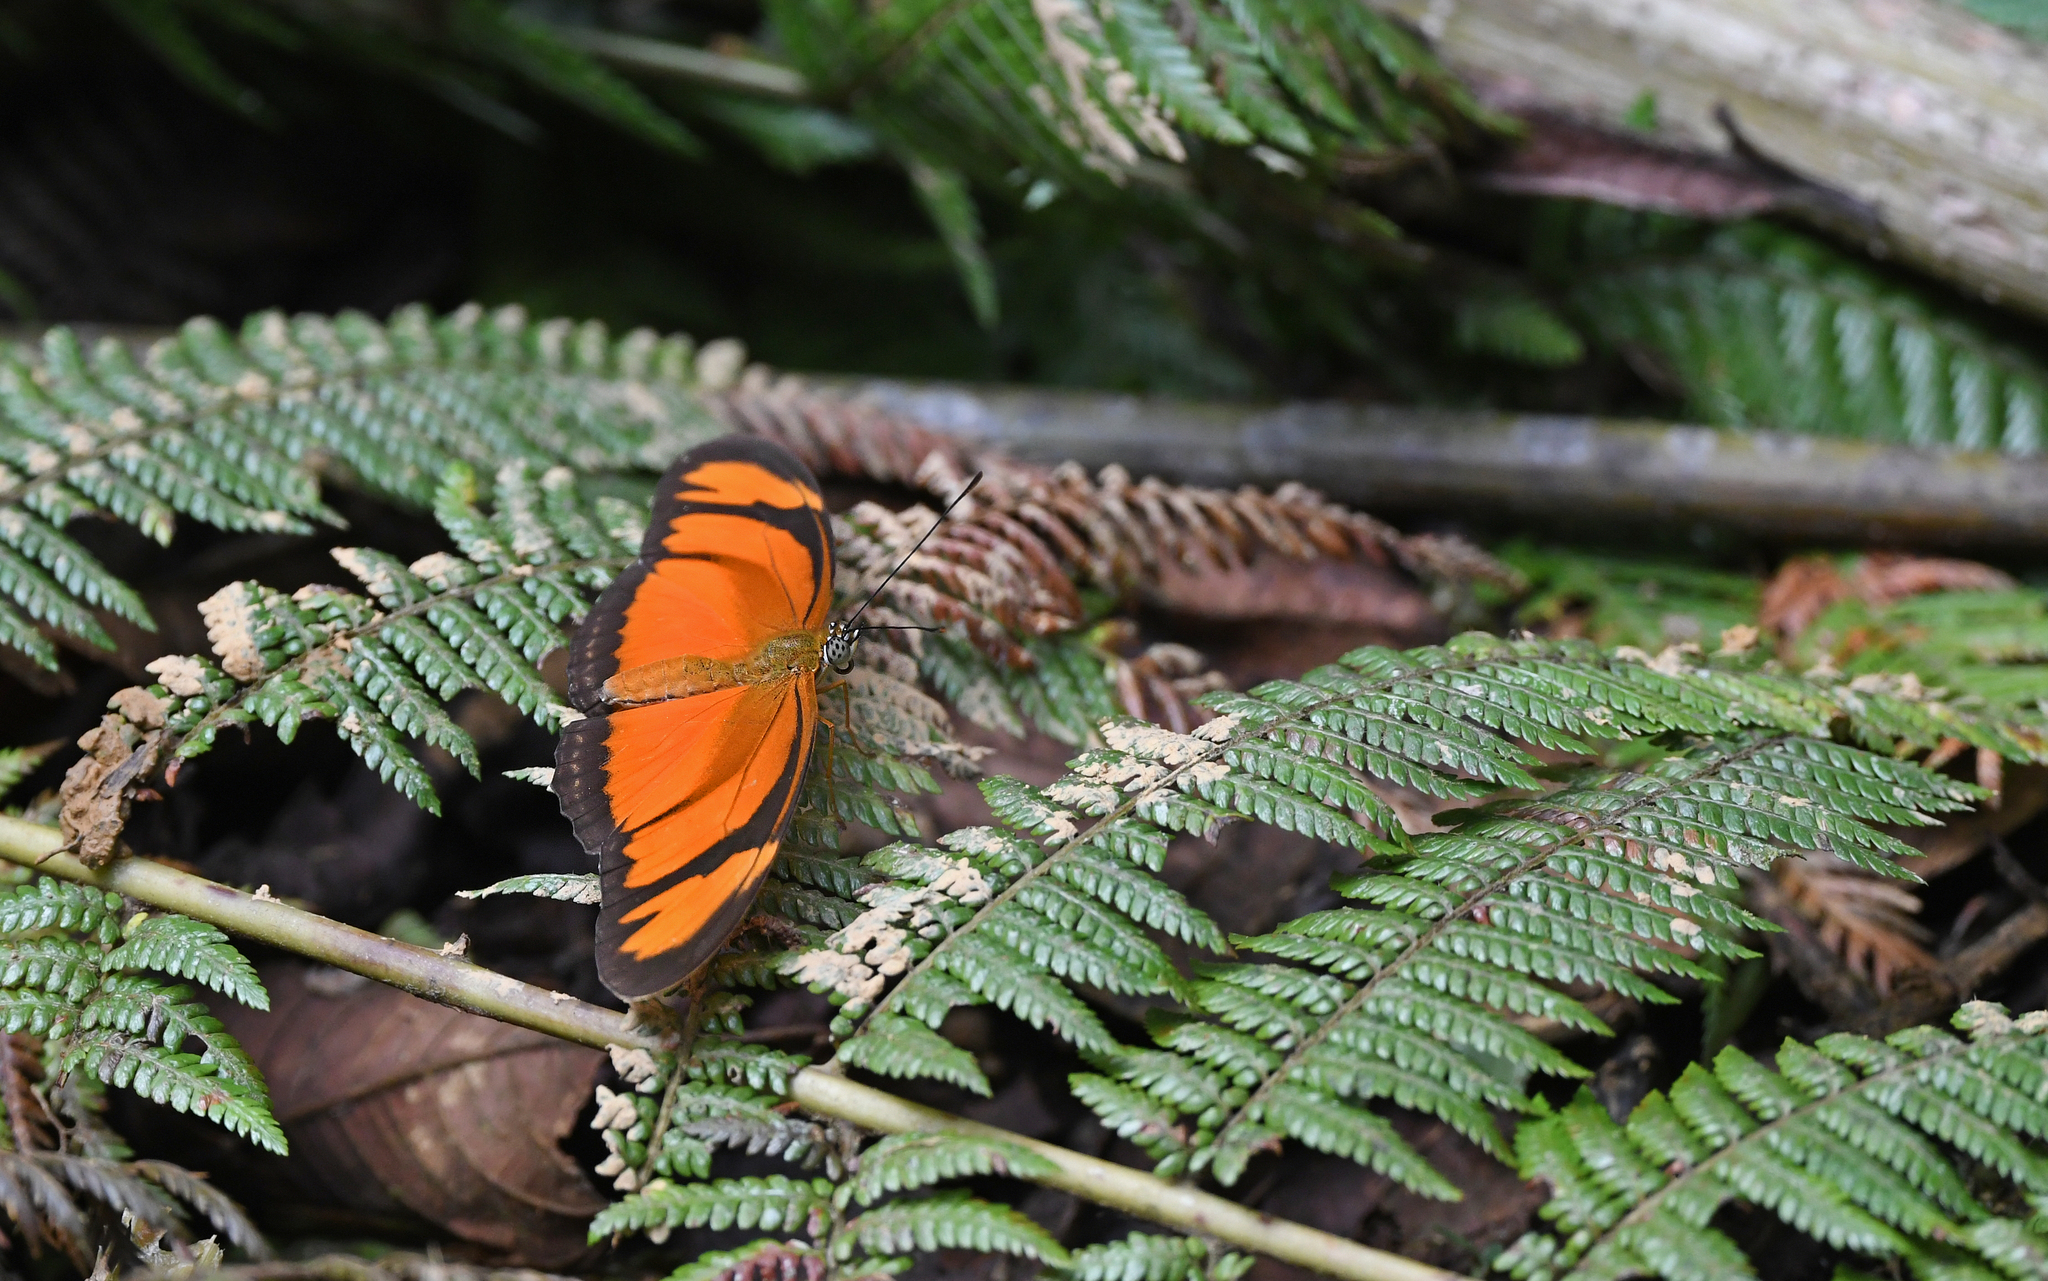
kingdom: Animalia
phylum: Arthropoda
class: Insecta
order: Lepidoptera
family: Nymphalidae
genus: Dryas
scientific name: Dryas iulia
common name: Flambeau
